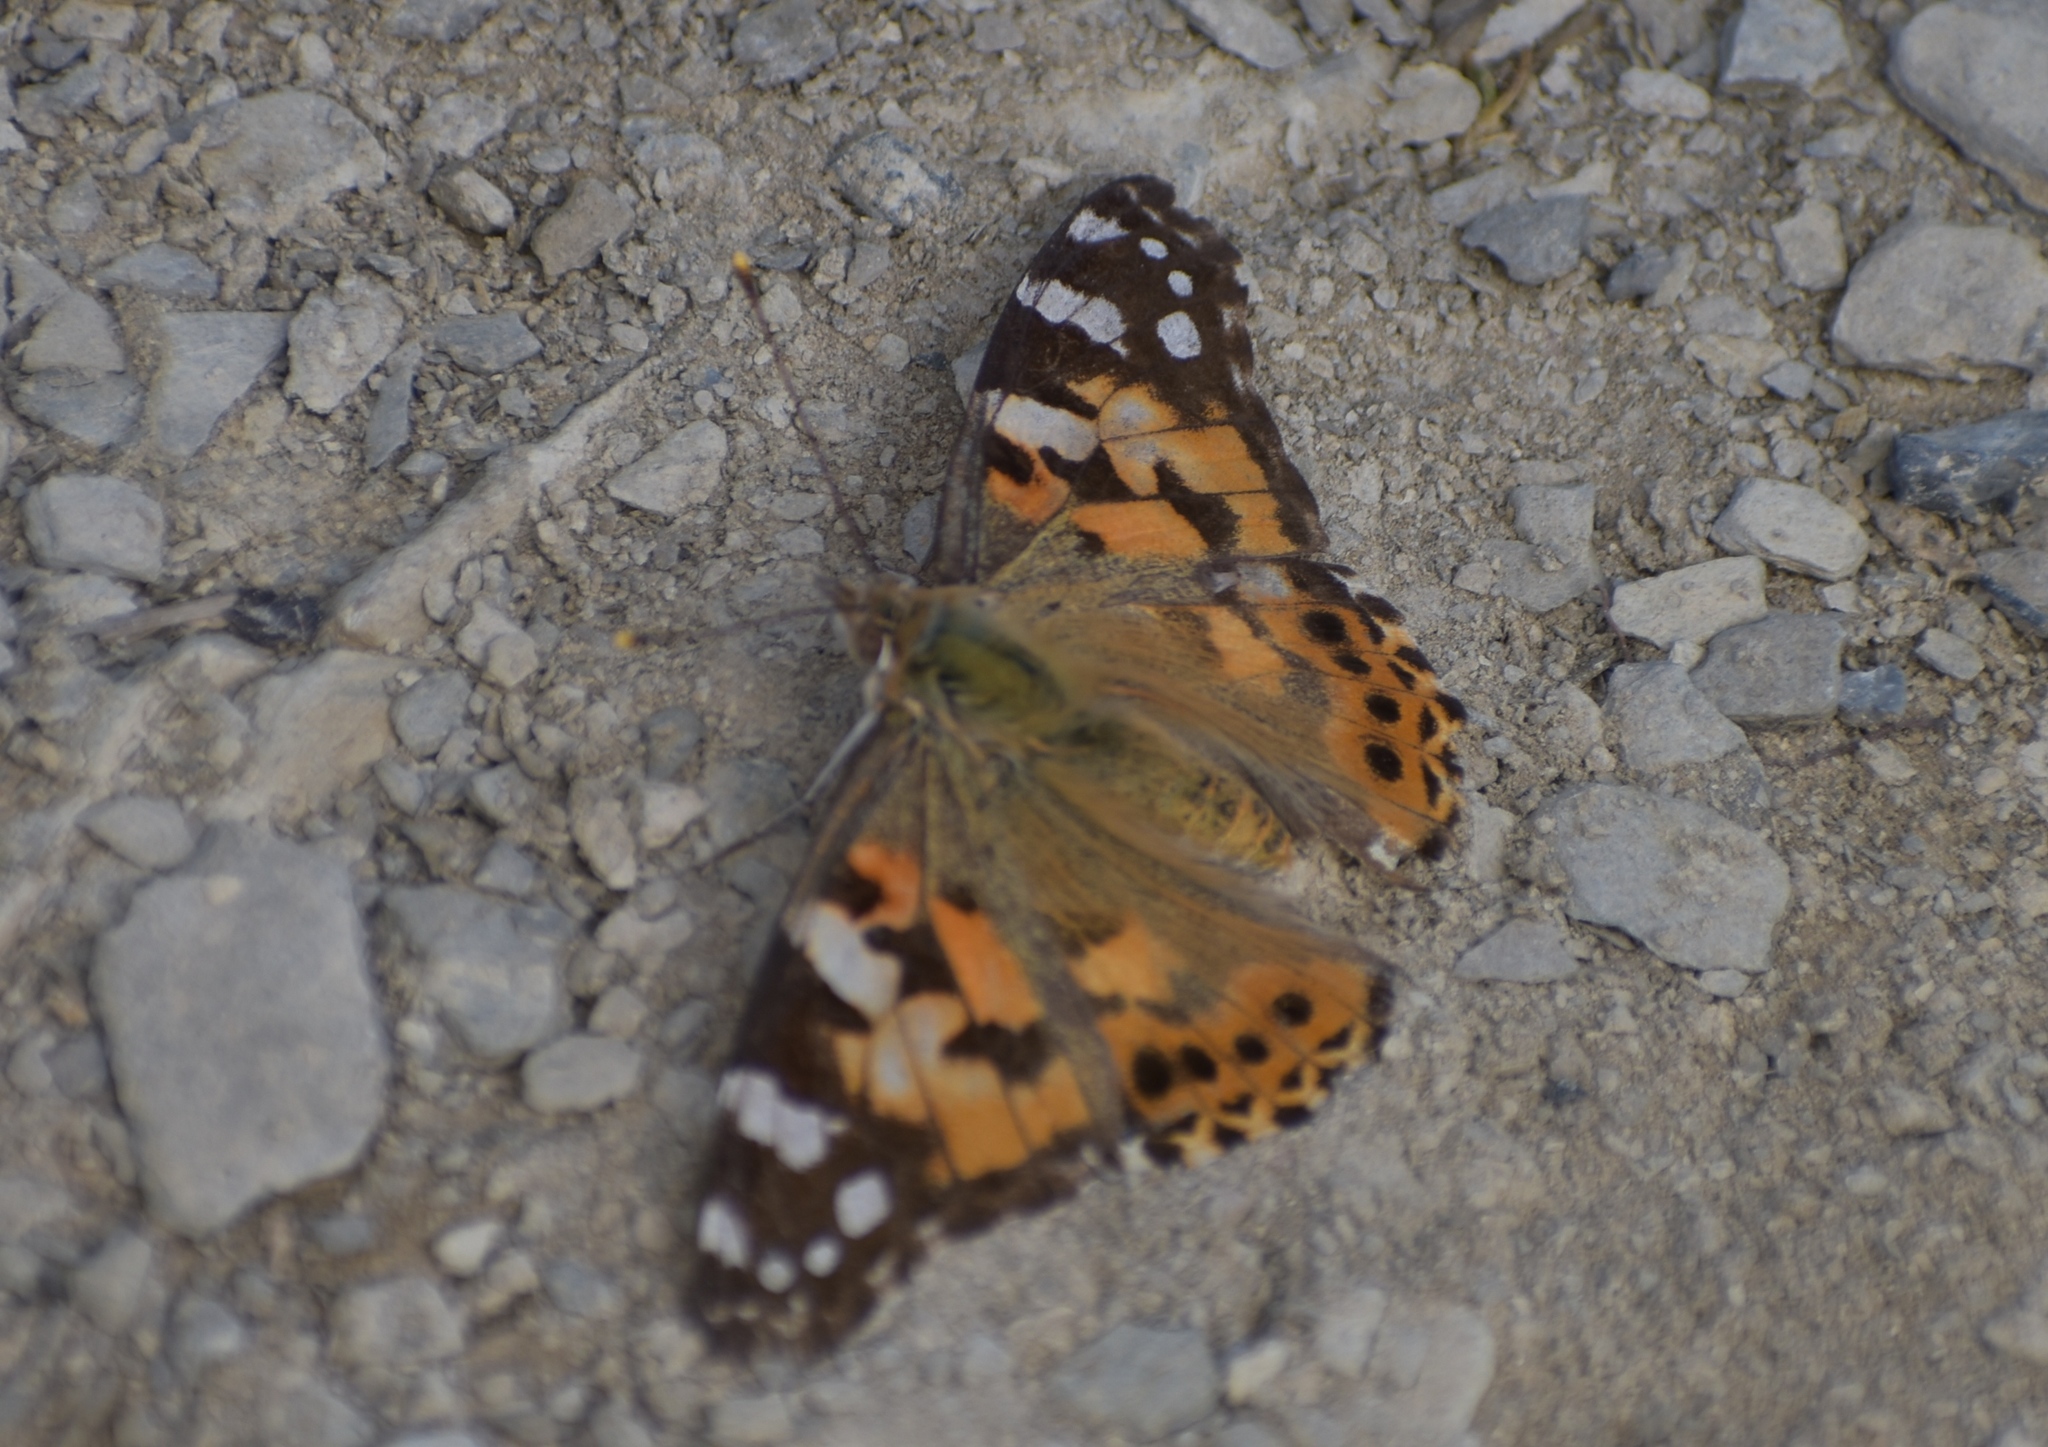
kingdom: Animalia
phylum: Arthropoda
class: Insecta
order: Lepidoptera
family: Nymphalidae
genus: Vanessa
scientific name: Vanessa cardui
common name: Painted lady
